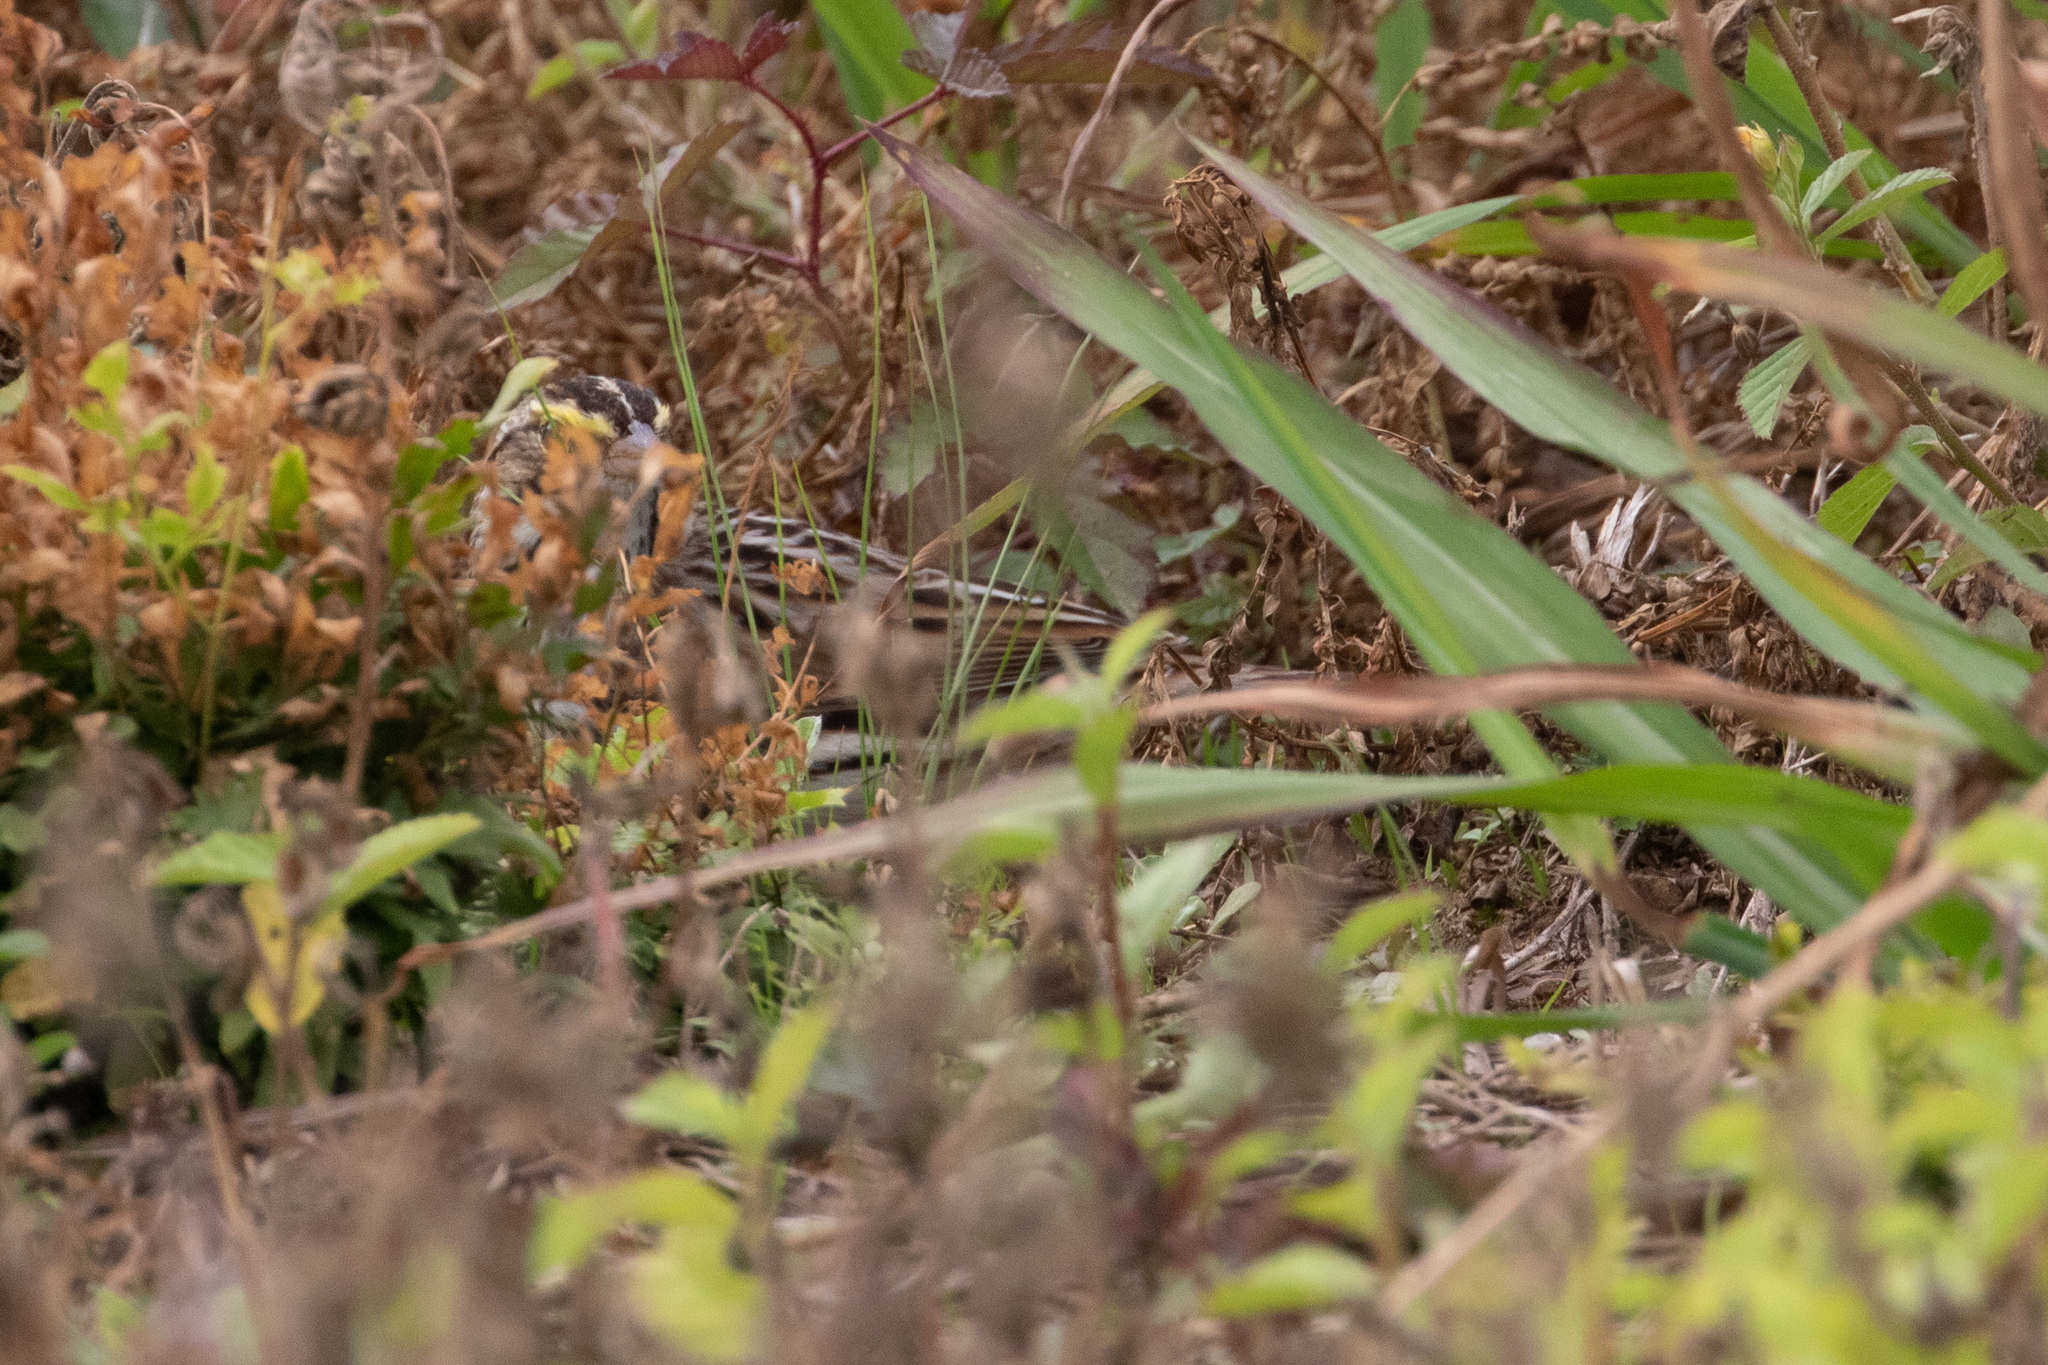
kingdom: Animalia
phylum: Chordata
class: Aves
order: Passeriformes
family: Passerellidae
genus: Passerculus
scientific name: Passerculus sandwichensis
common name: Savannah sparrow
